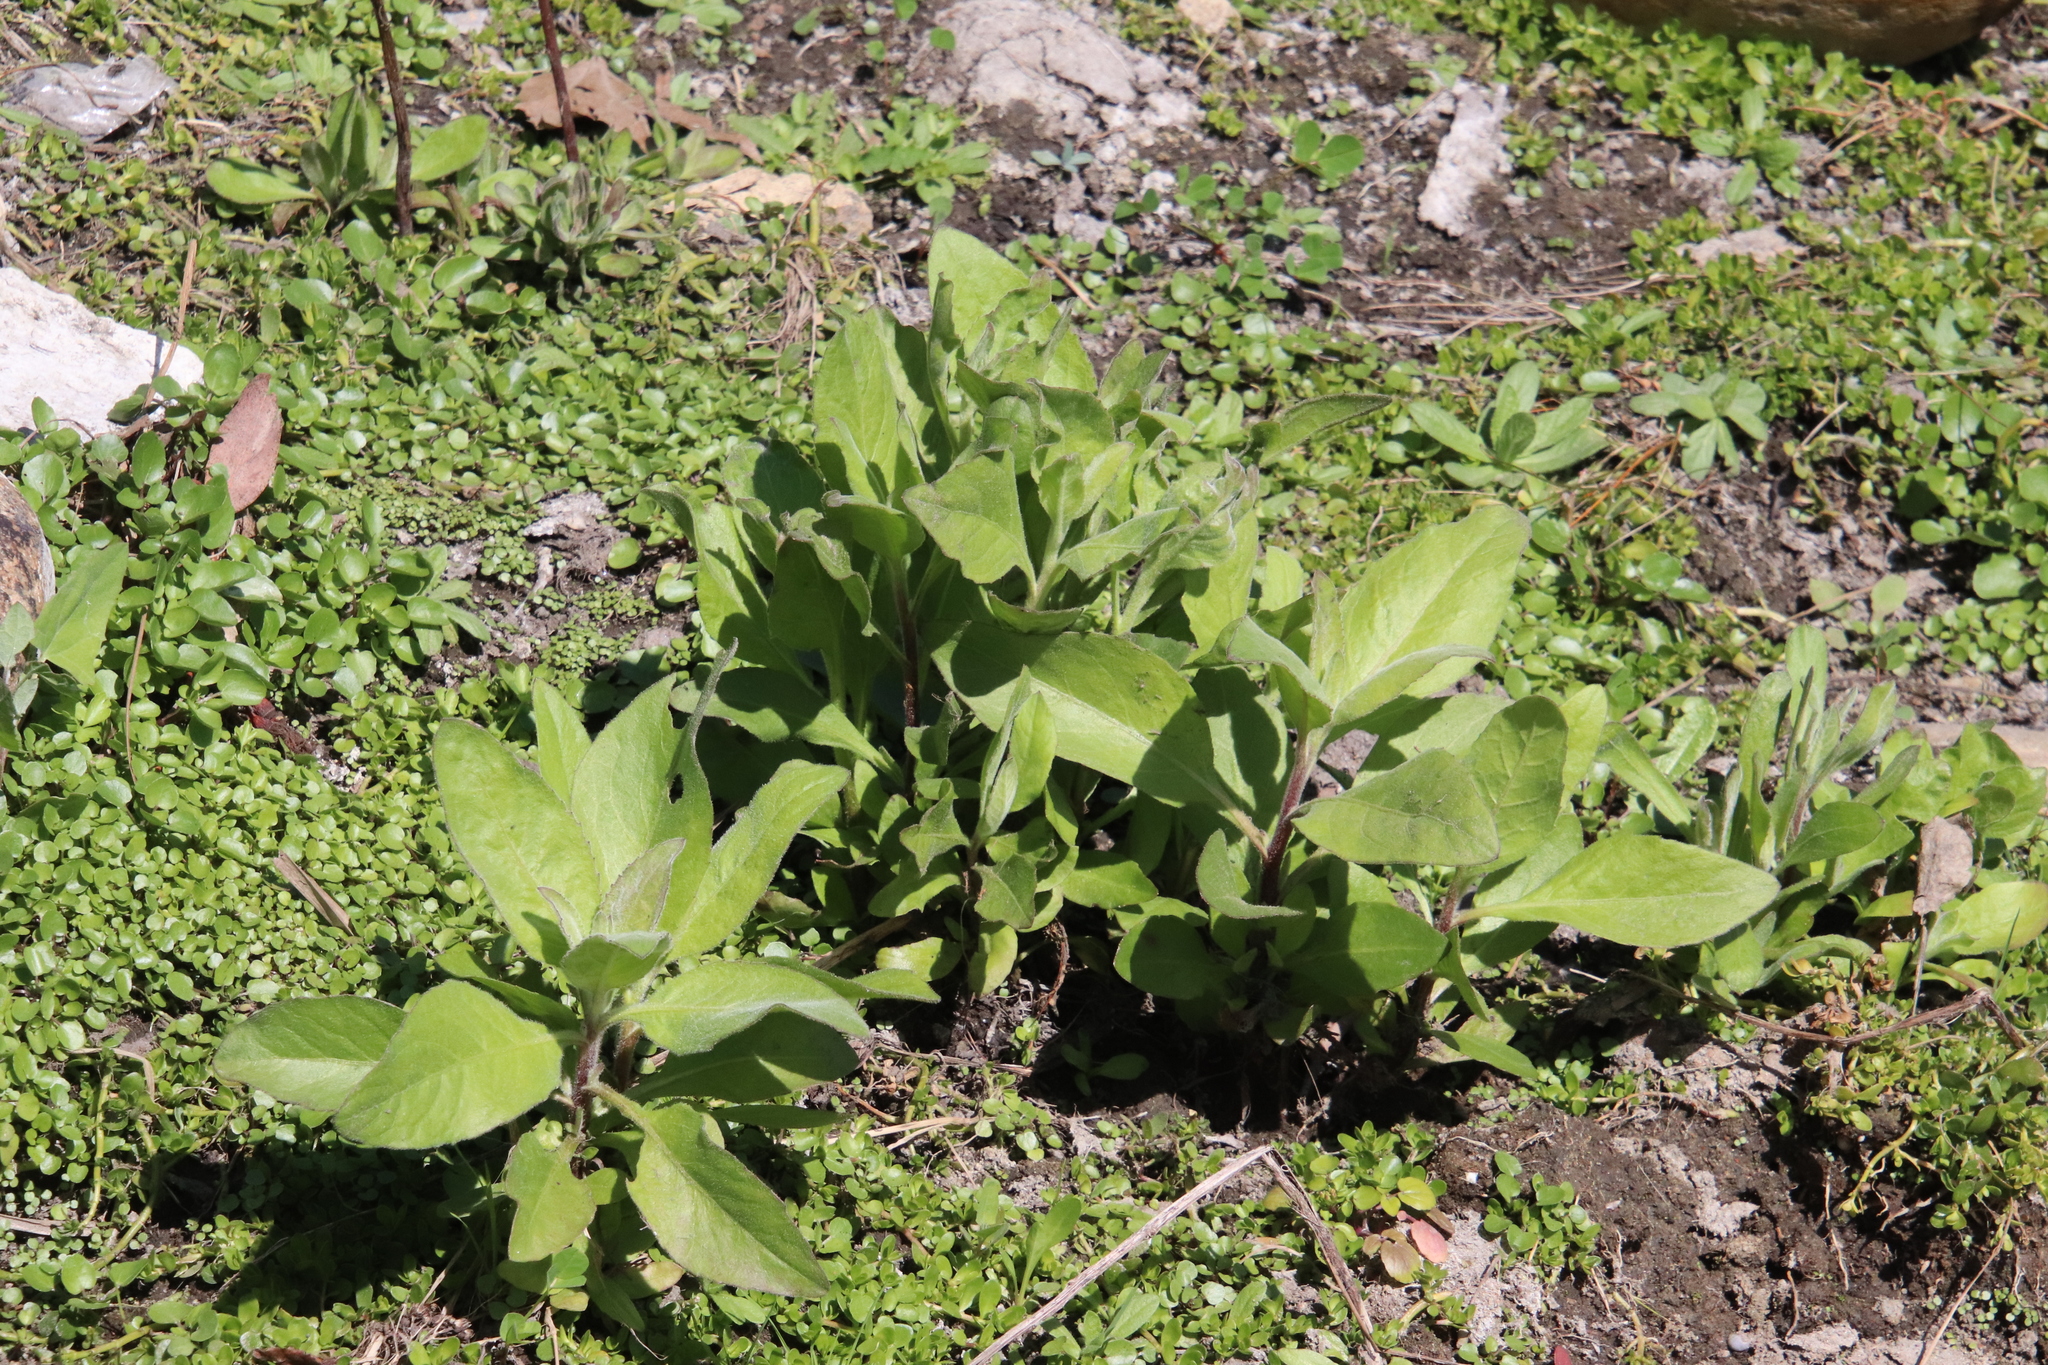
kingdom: Plantae
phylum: Tracheophyta
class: Magnoliopsida
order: Asterales
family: Asteraceae
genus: Pluchea
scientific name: Pluchea odorata
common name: Saltmarsh fleabane
